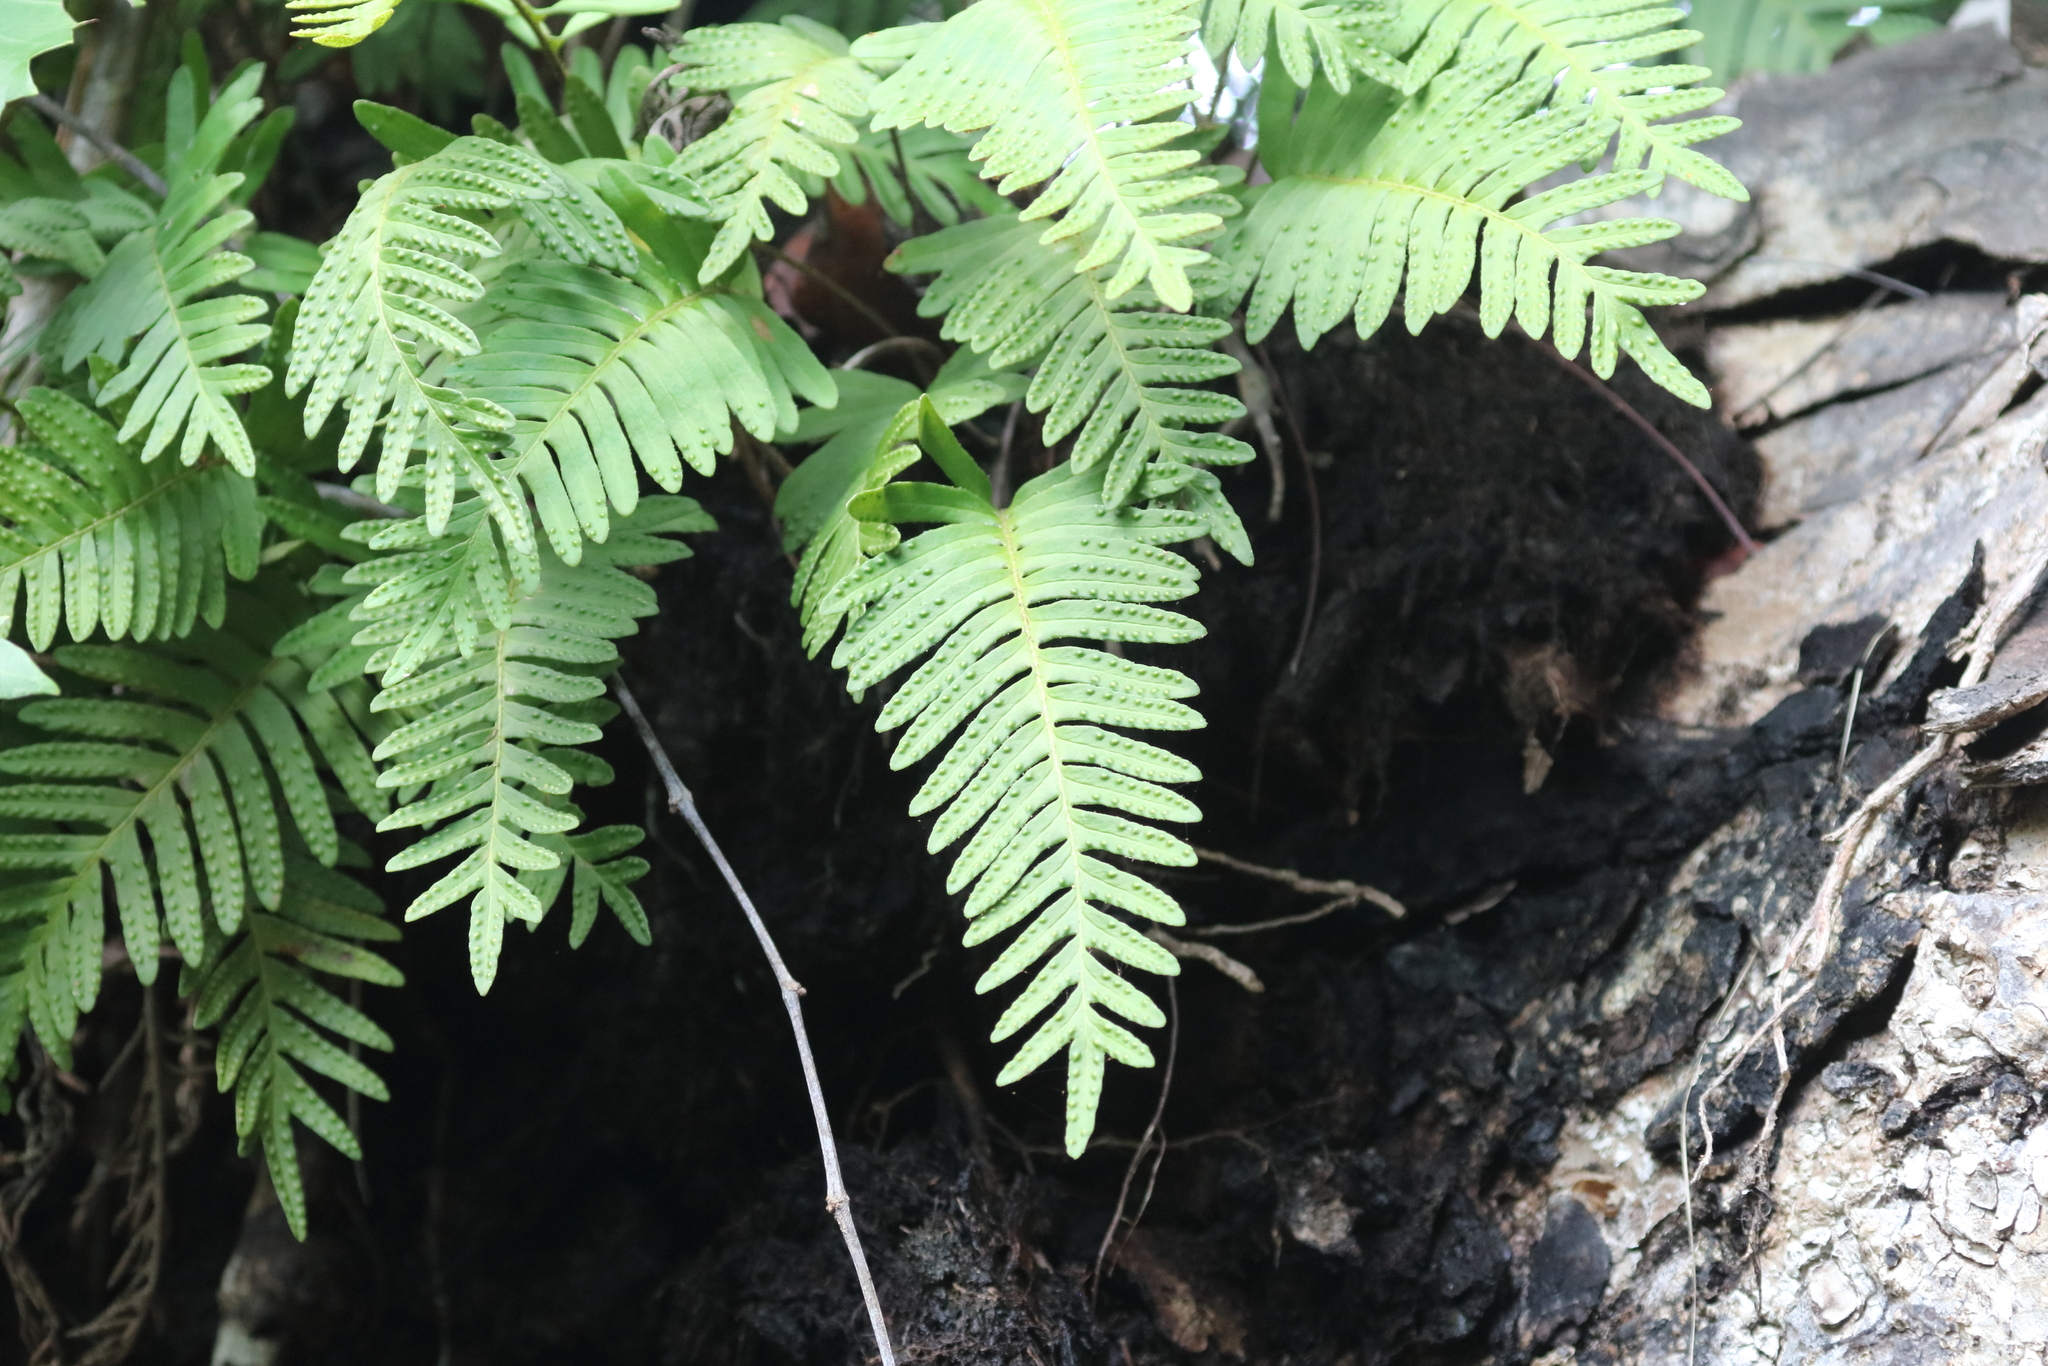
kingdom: Plantae
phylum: Tracheophyta
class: Polypodiopsida
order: Polypodiales
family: Polypodiaceae
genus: Pleopeltis
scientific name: Pleopeltis michauxiana
